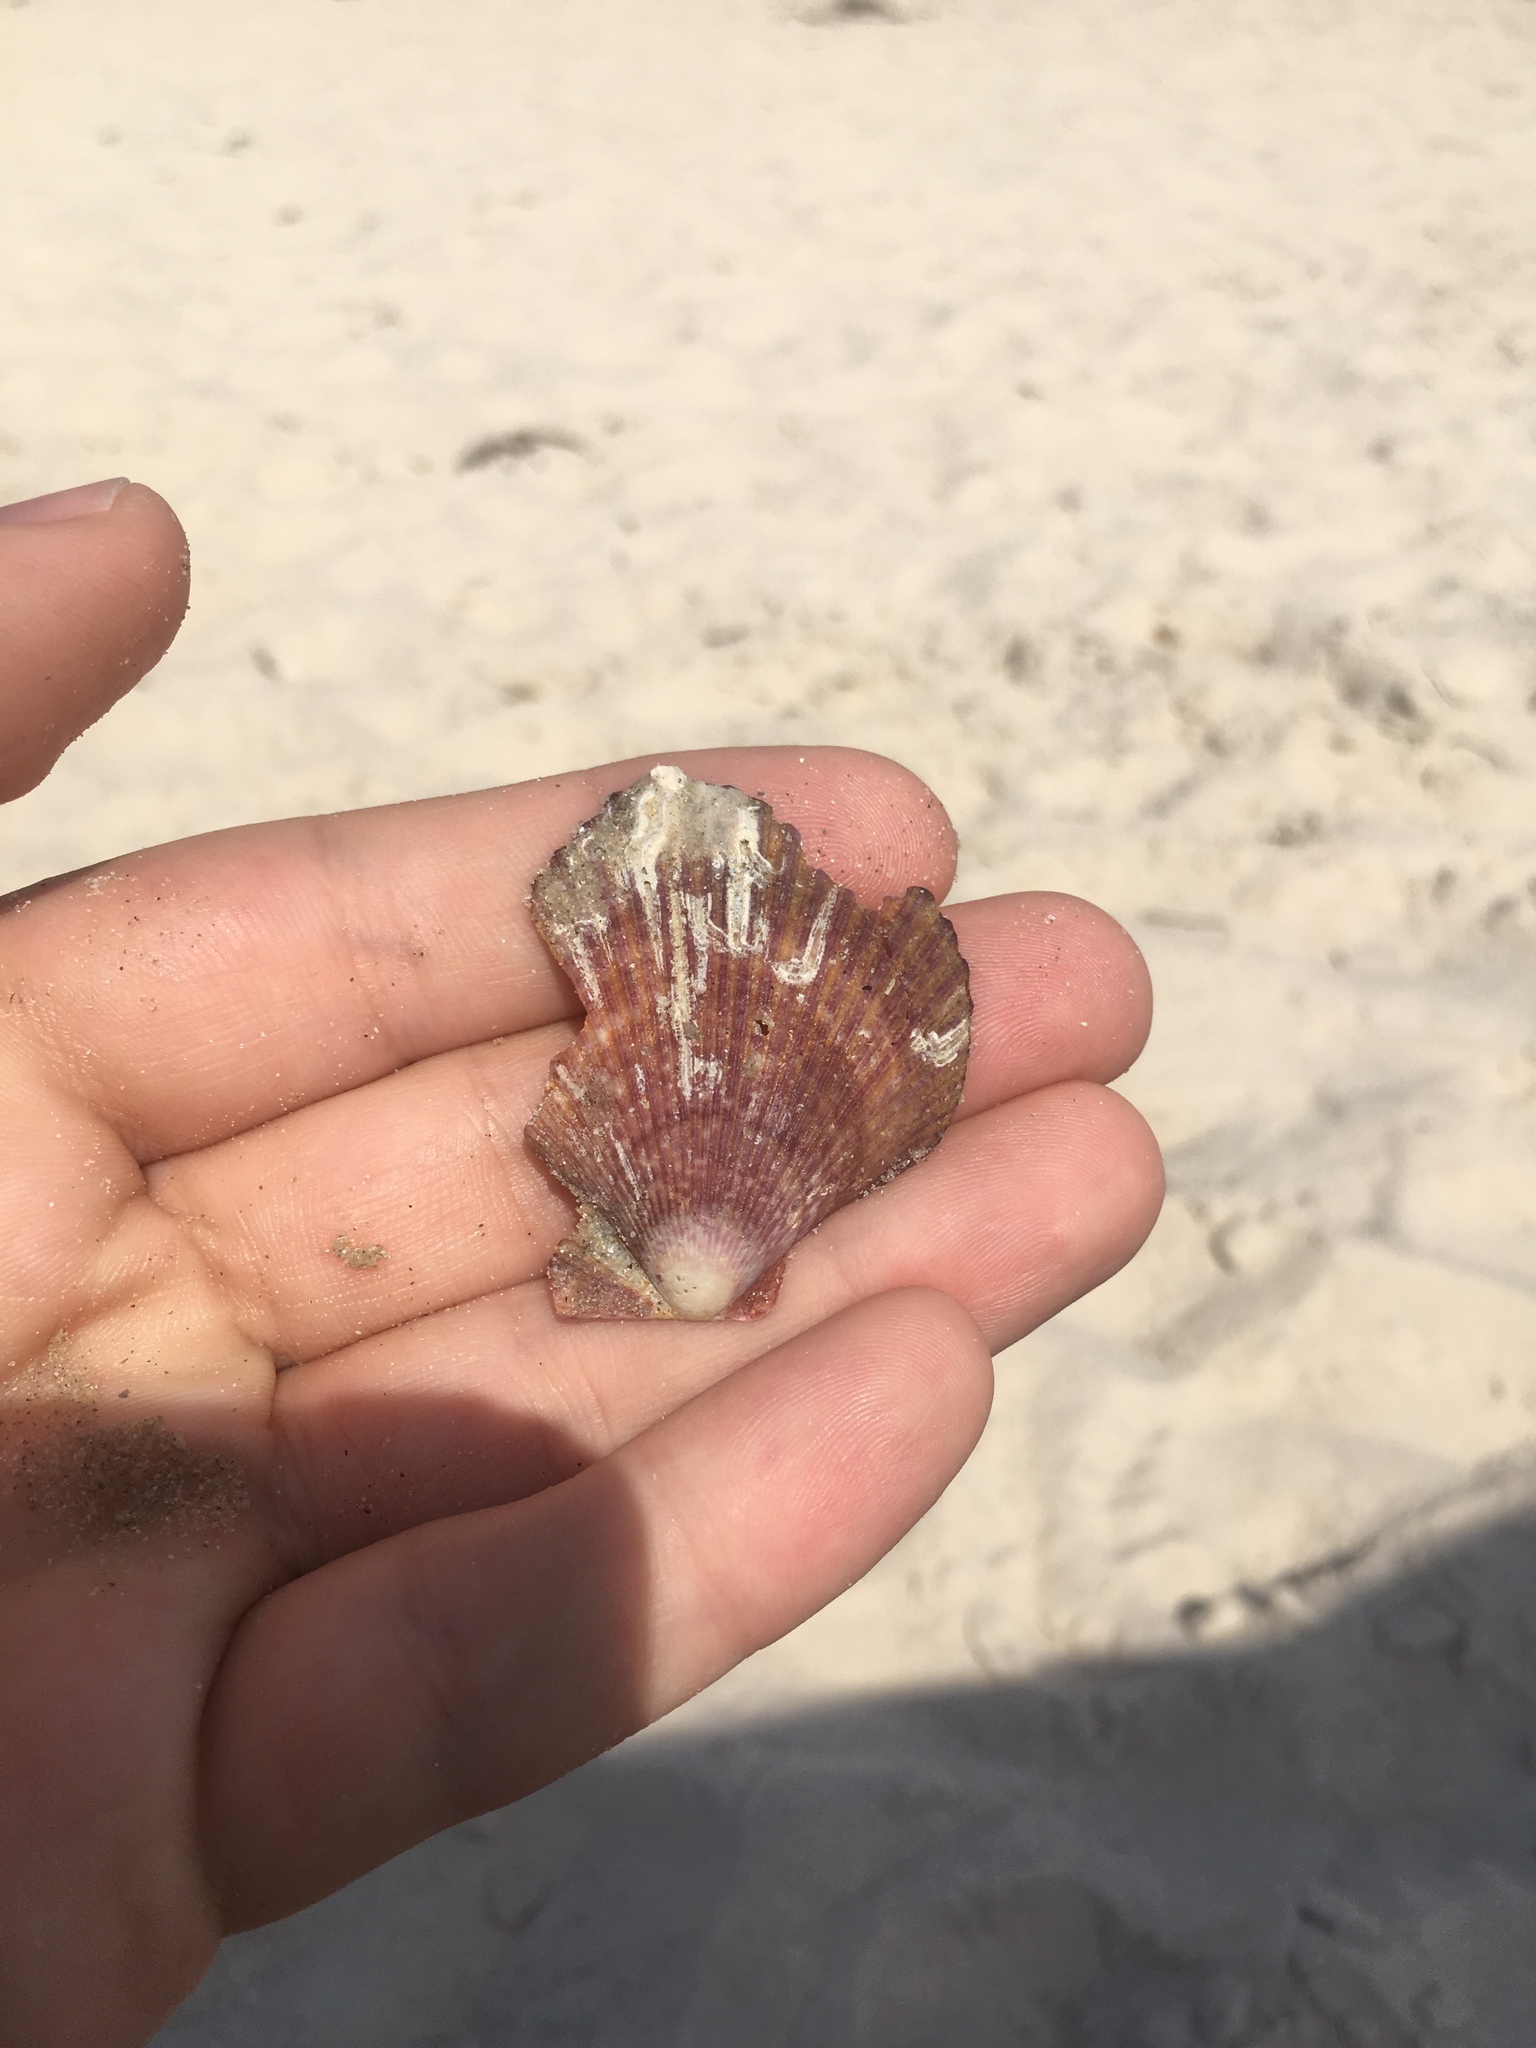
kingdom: Animalia
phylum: Mollusca
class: Bivalvia
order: Pectinida
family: Pectinidae
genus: Mimachlamys
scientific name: Mimachlamys asperrima
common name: Austral scallop
